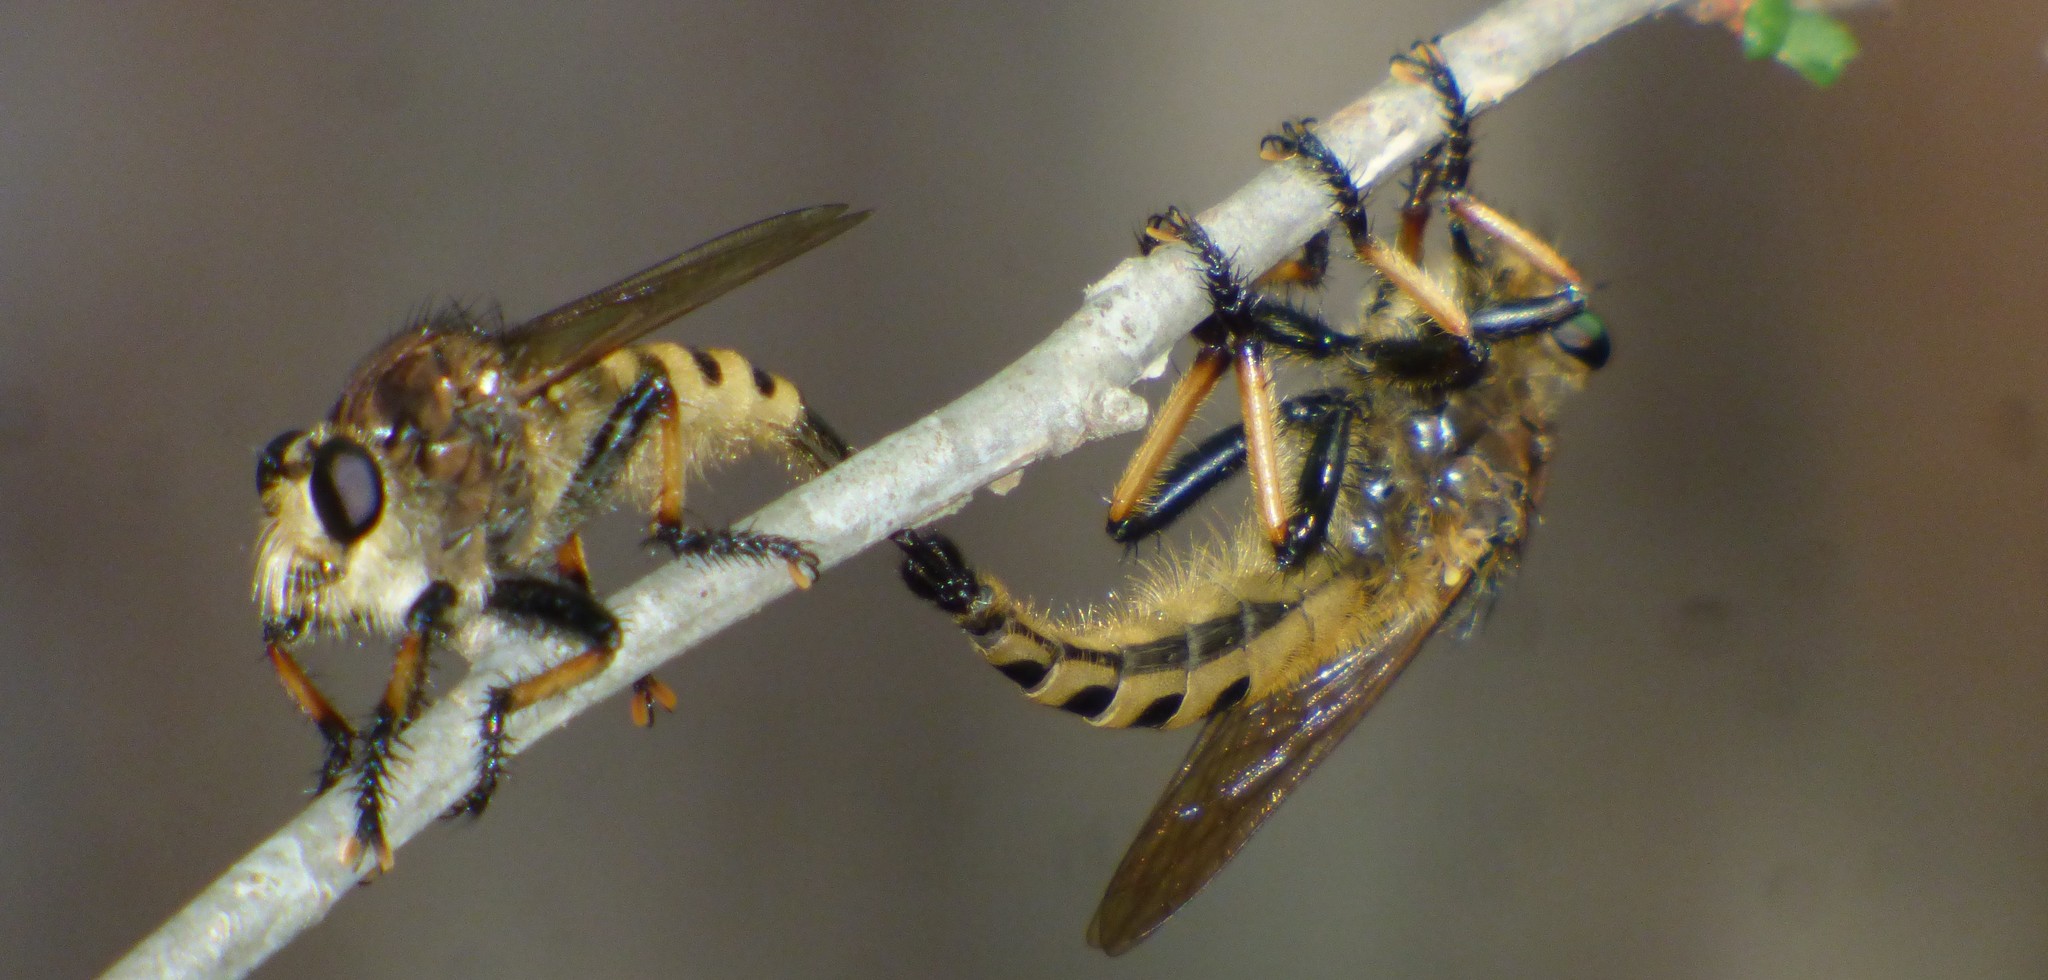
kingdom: Animalia
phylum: Arthropoda
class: Insecta
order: Diptera
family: Asilidae
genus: Promachus
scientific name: Promachus rufipes
